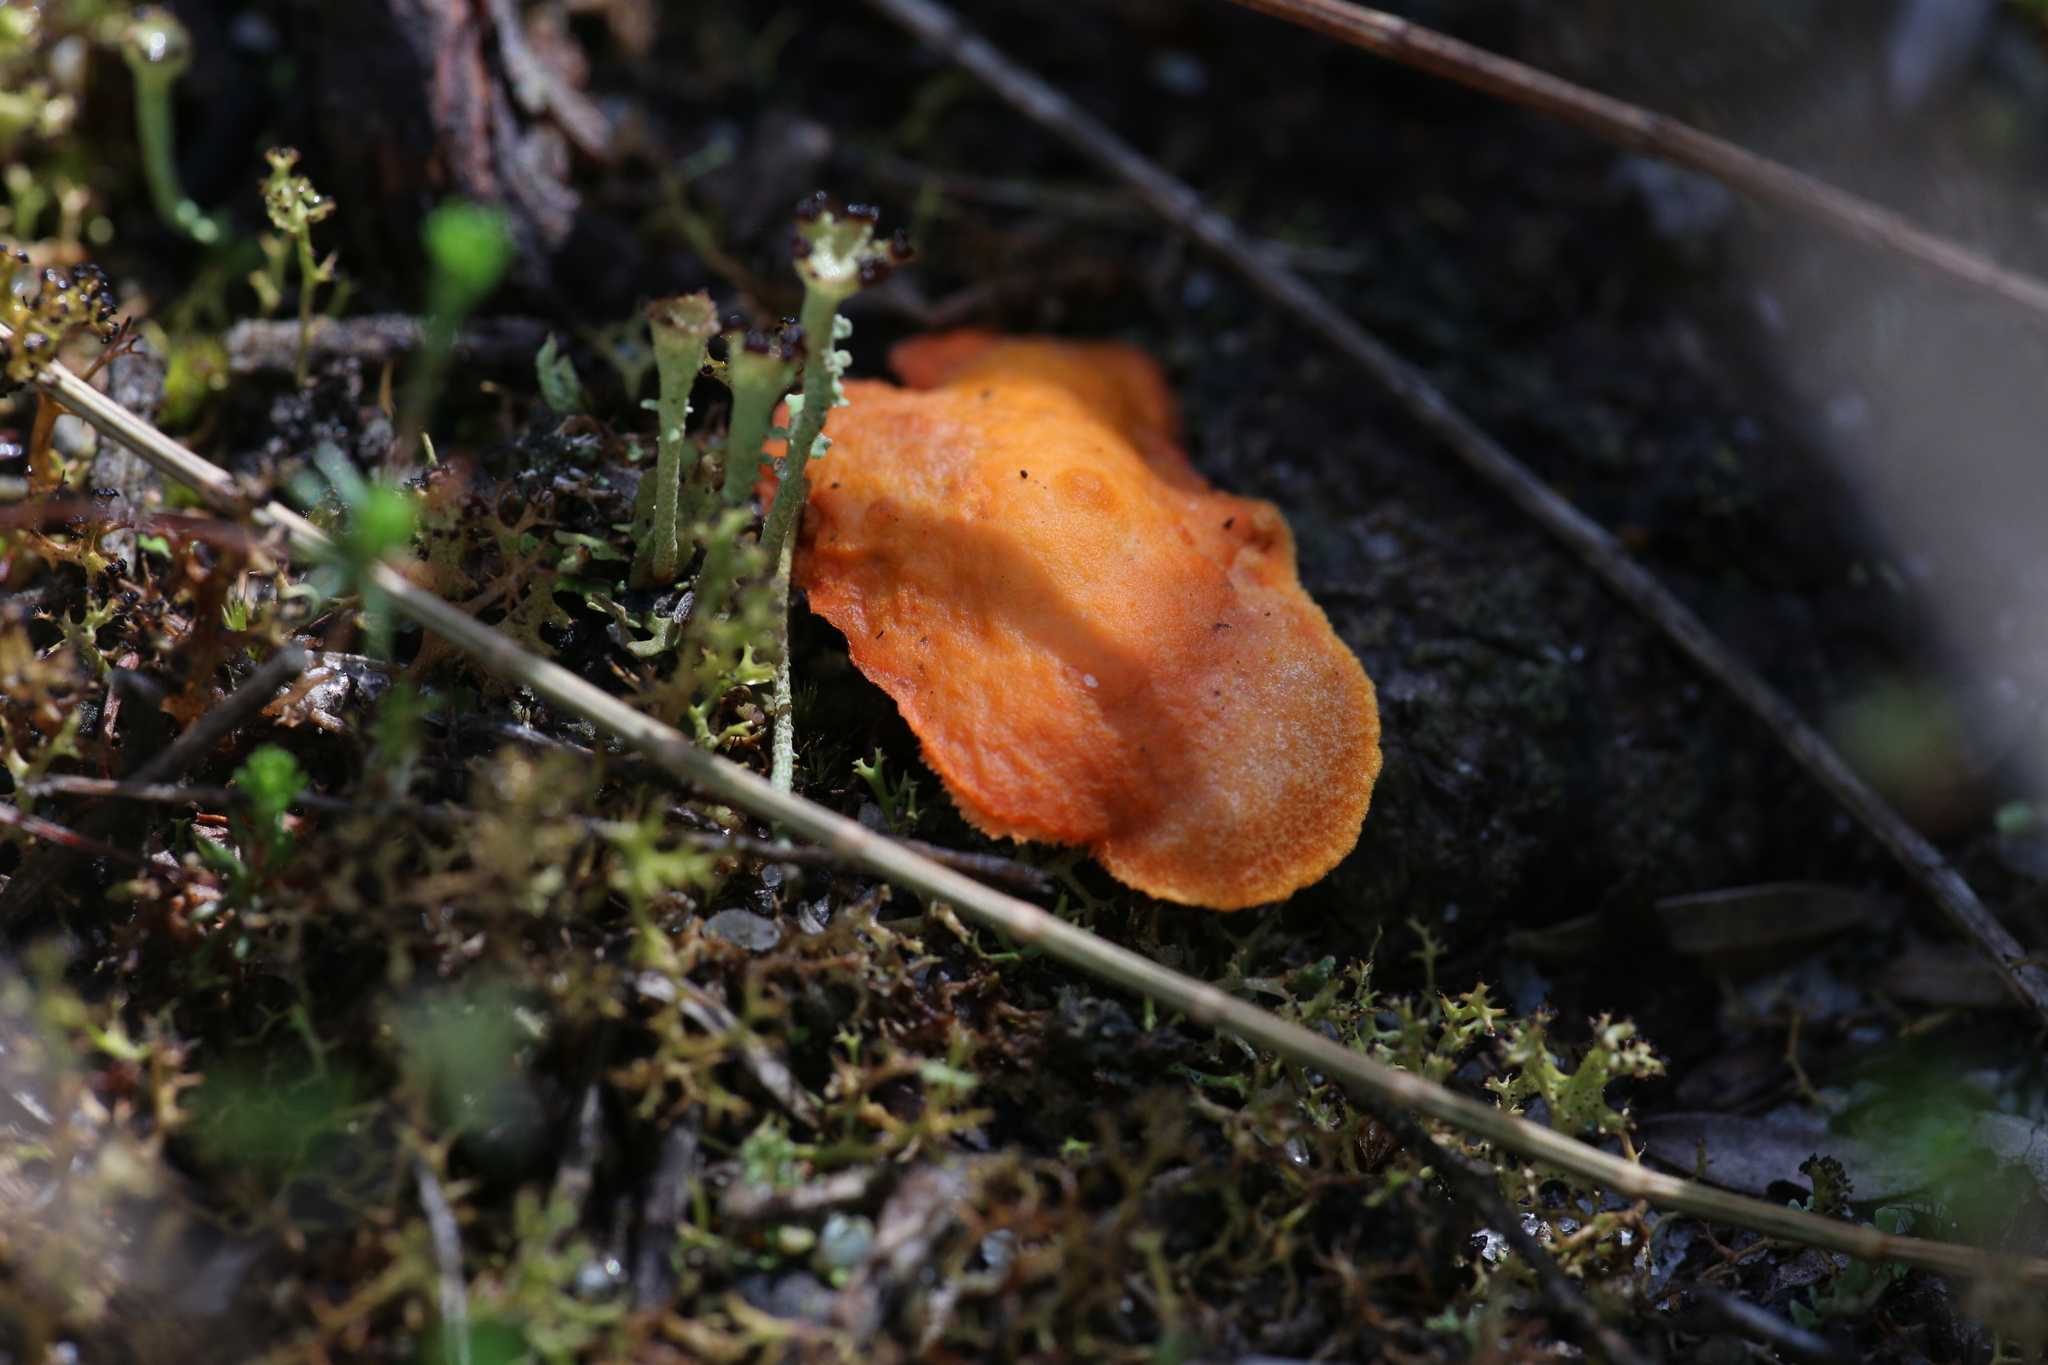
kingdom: Fungi
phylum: Basidiomycota
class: Agaricomycetes
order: Polyporales
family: Polyporaceae
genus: Trametes
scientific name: Trametes coccinea
